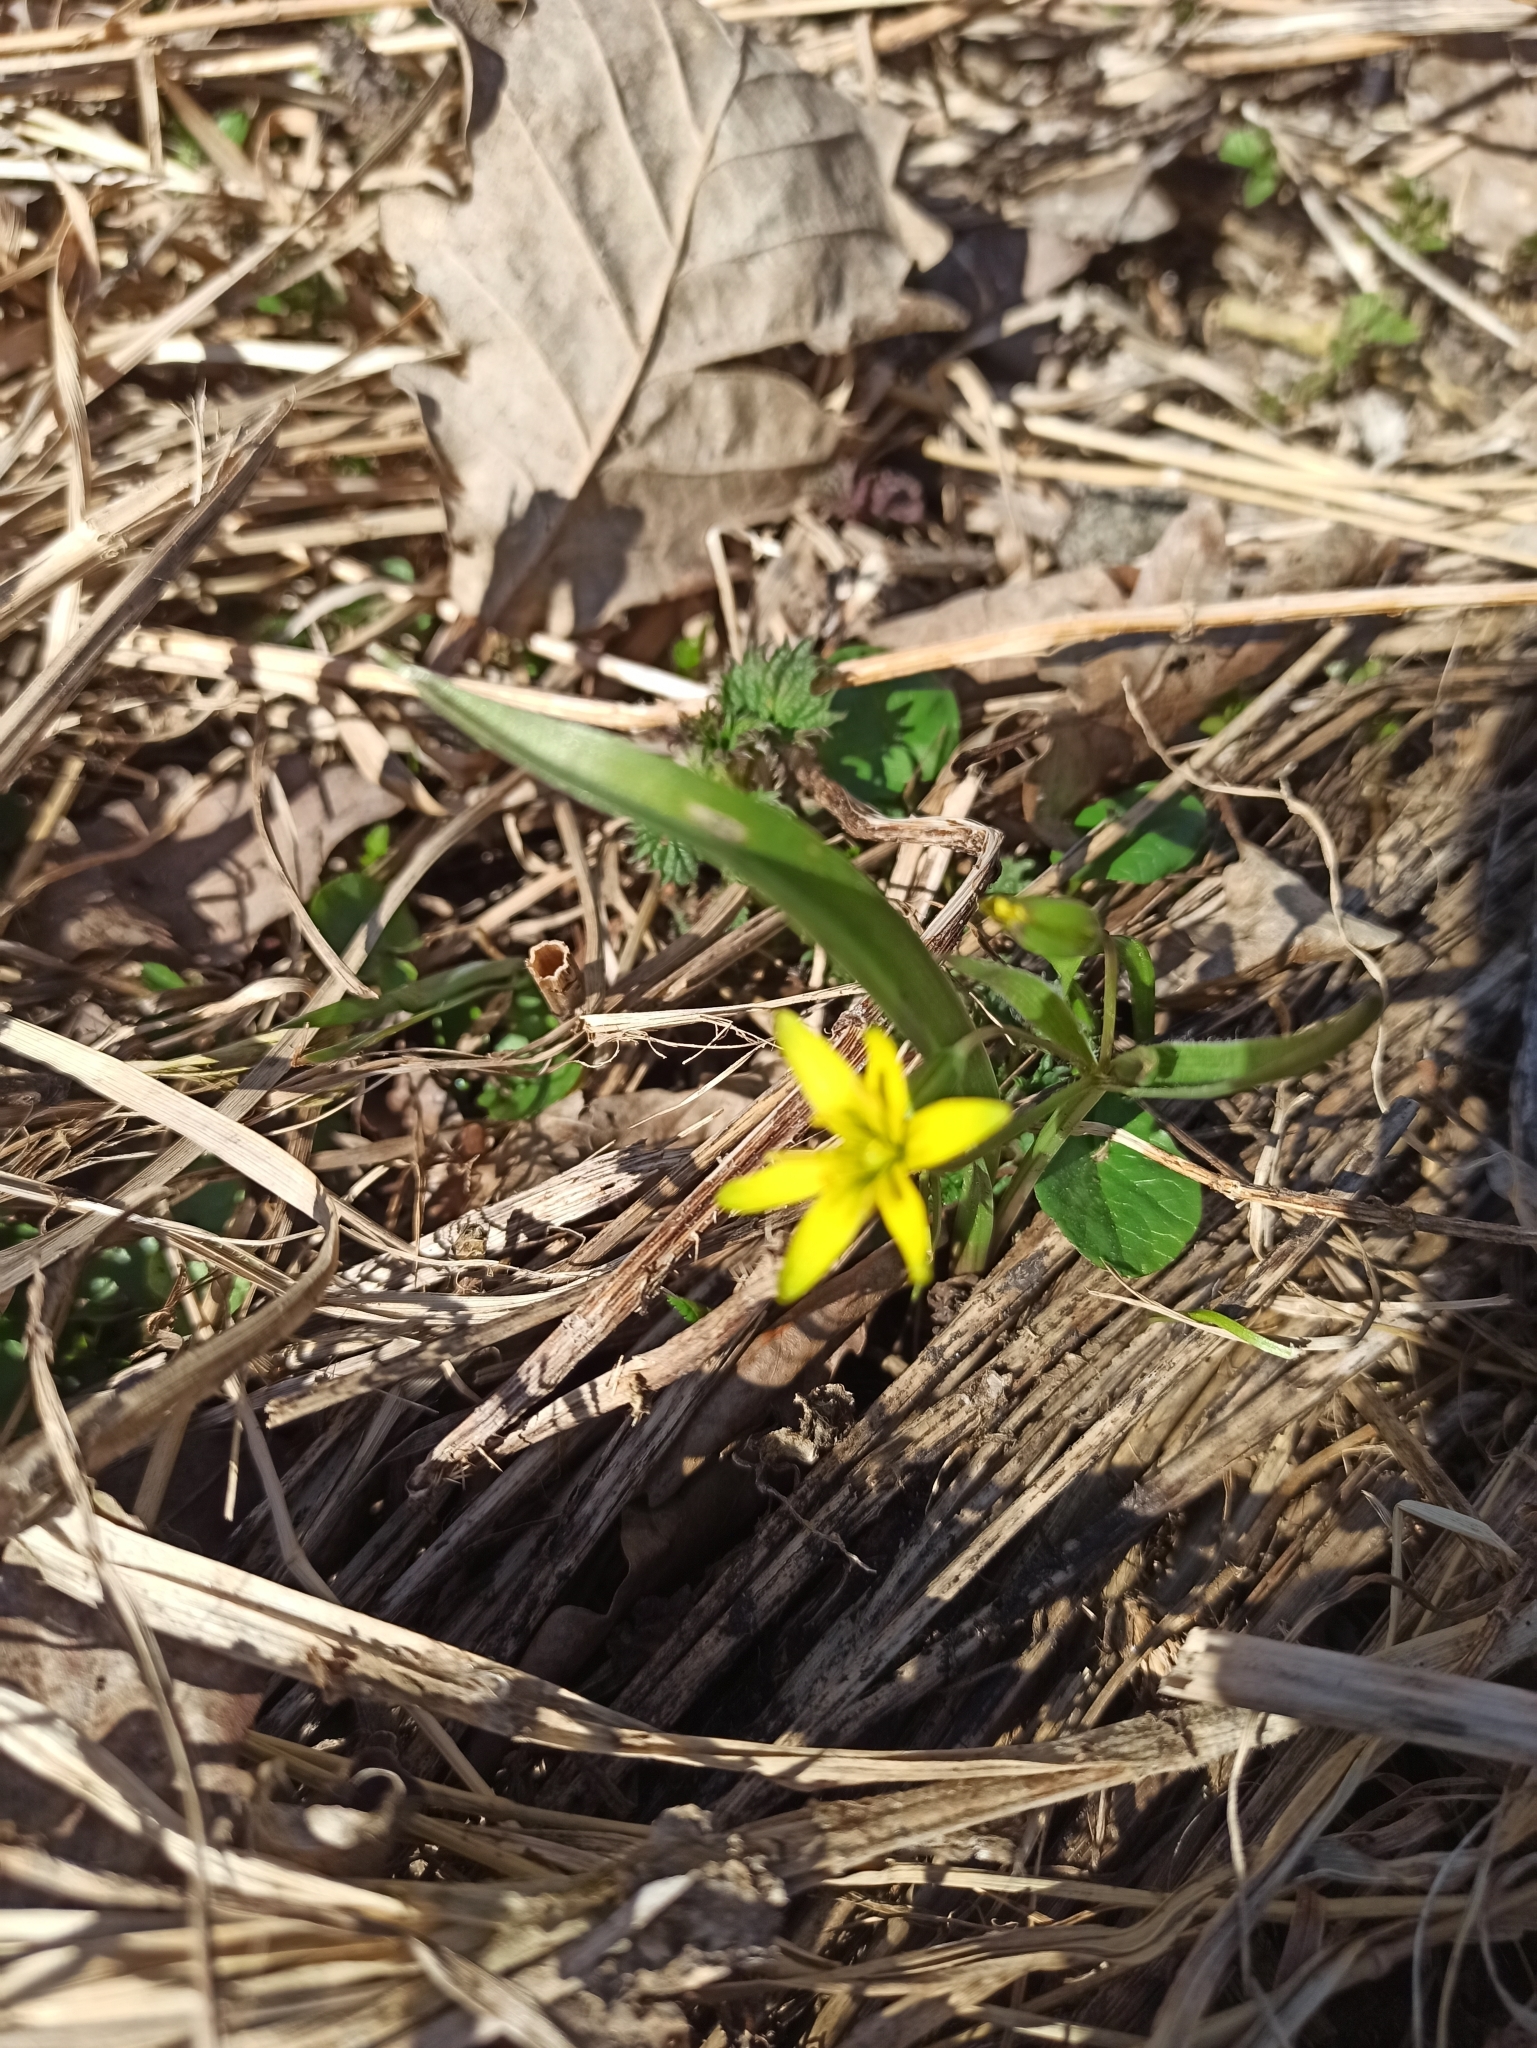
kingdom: Plantae
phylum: Tracheophyta
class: Liliopsida
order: Liliales
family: Liliaceae
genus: Gagea
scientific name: Gagea lutea
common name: Yellow star-of-bethlehem
